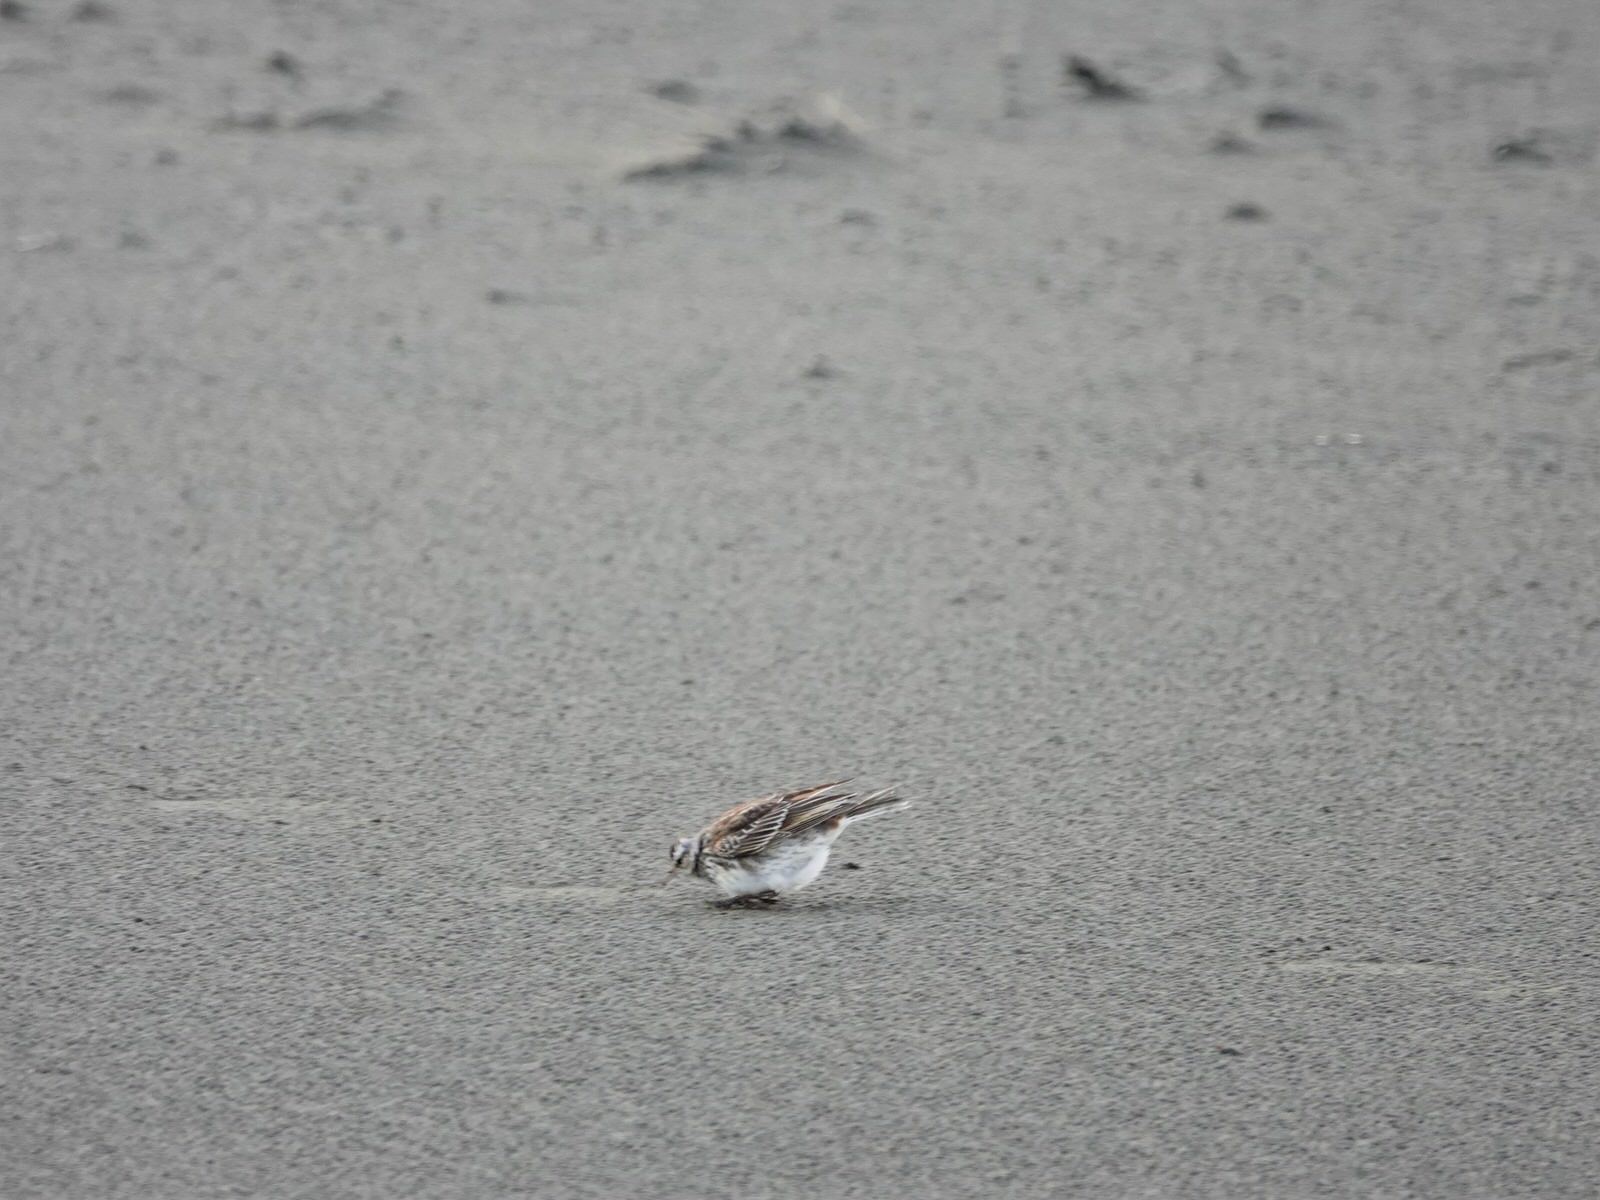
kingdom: Animalia
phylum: Chordata
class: Aves
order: Passeriformes
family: Motacillidae
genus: Anthus
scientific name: Anthus novaeseelandiae
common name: New zealand pipit
